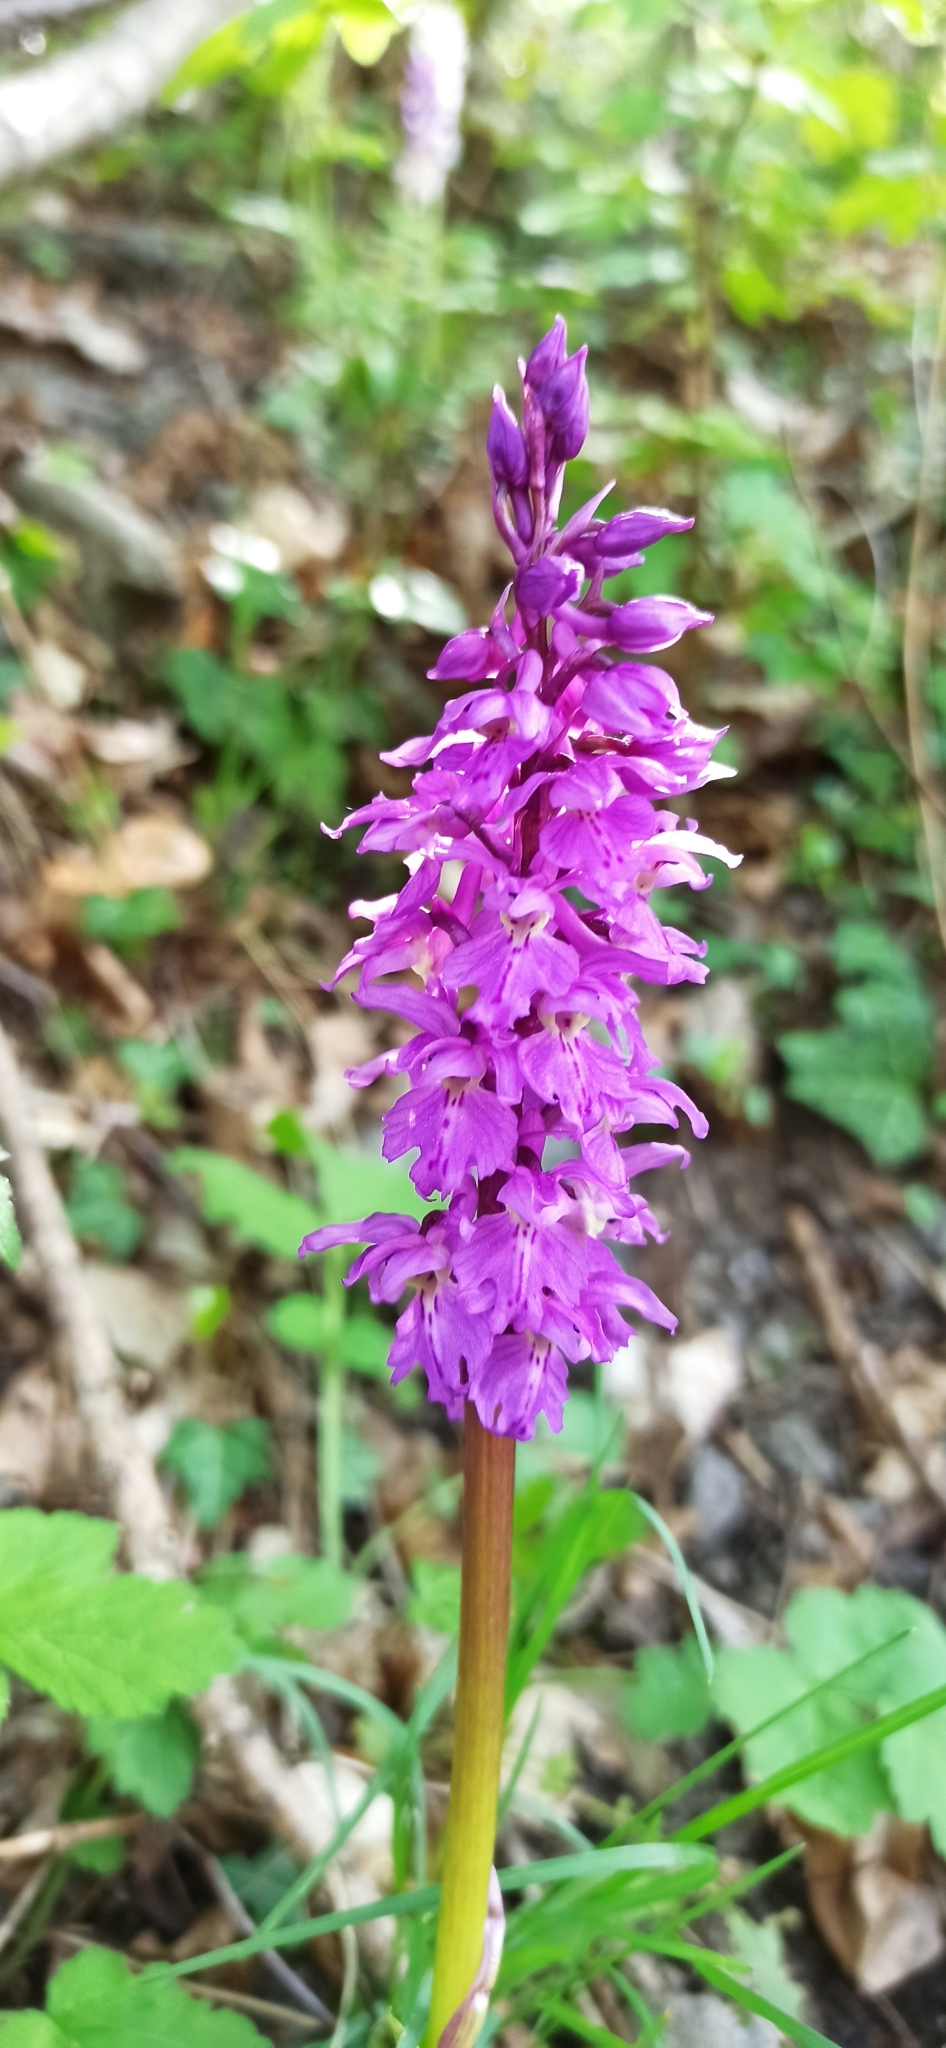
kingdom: Plantae
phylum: Tracheophyta
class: Liliopsida
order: Asparagales
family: Orchidaceae
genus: Orchis
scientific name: Orchis mascula
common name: Early-purple orchid
